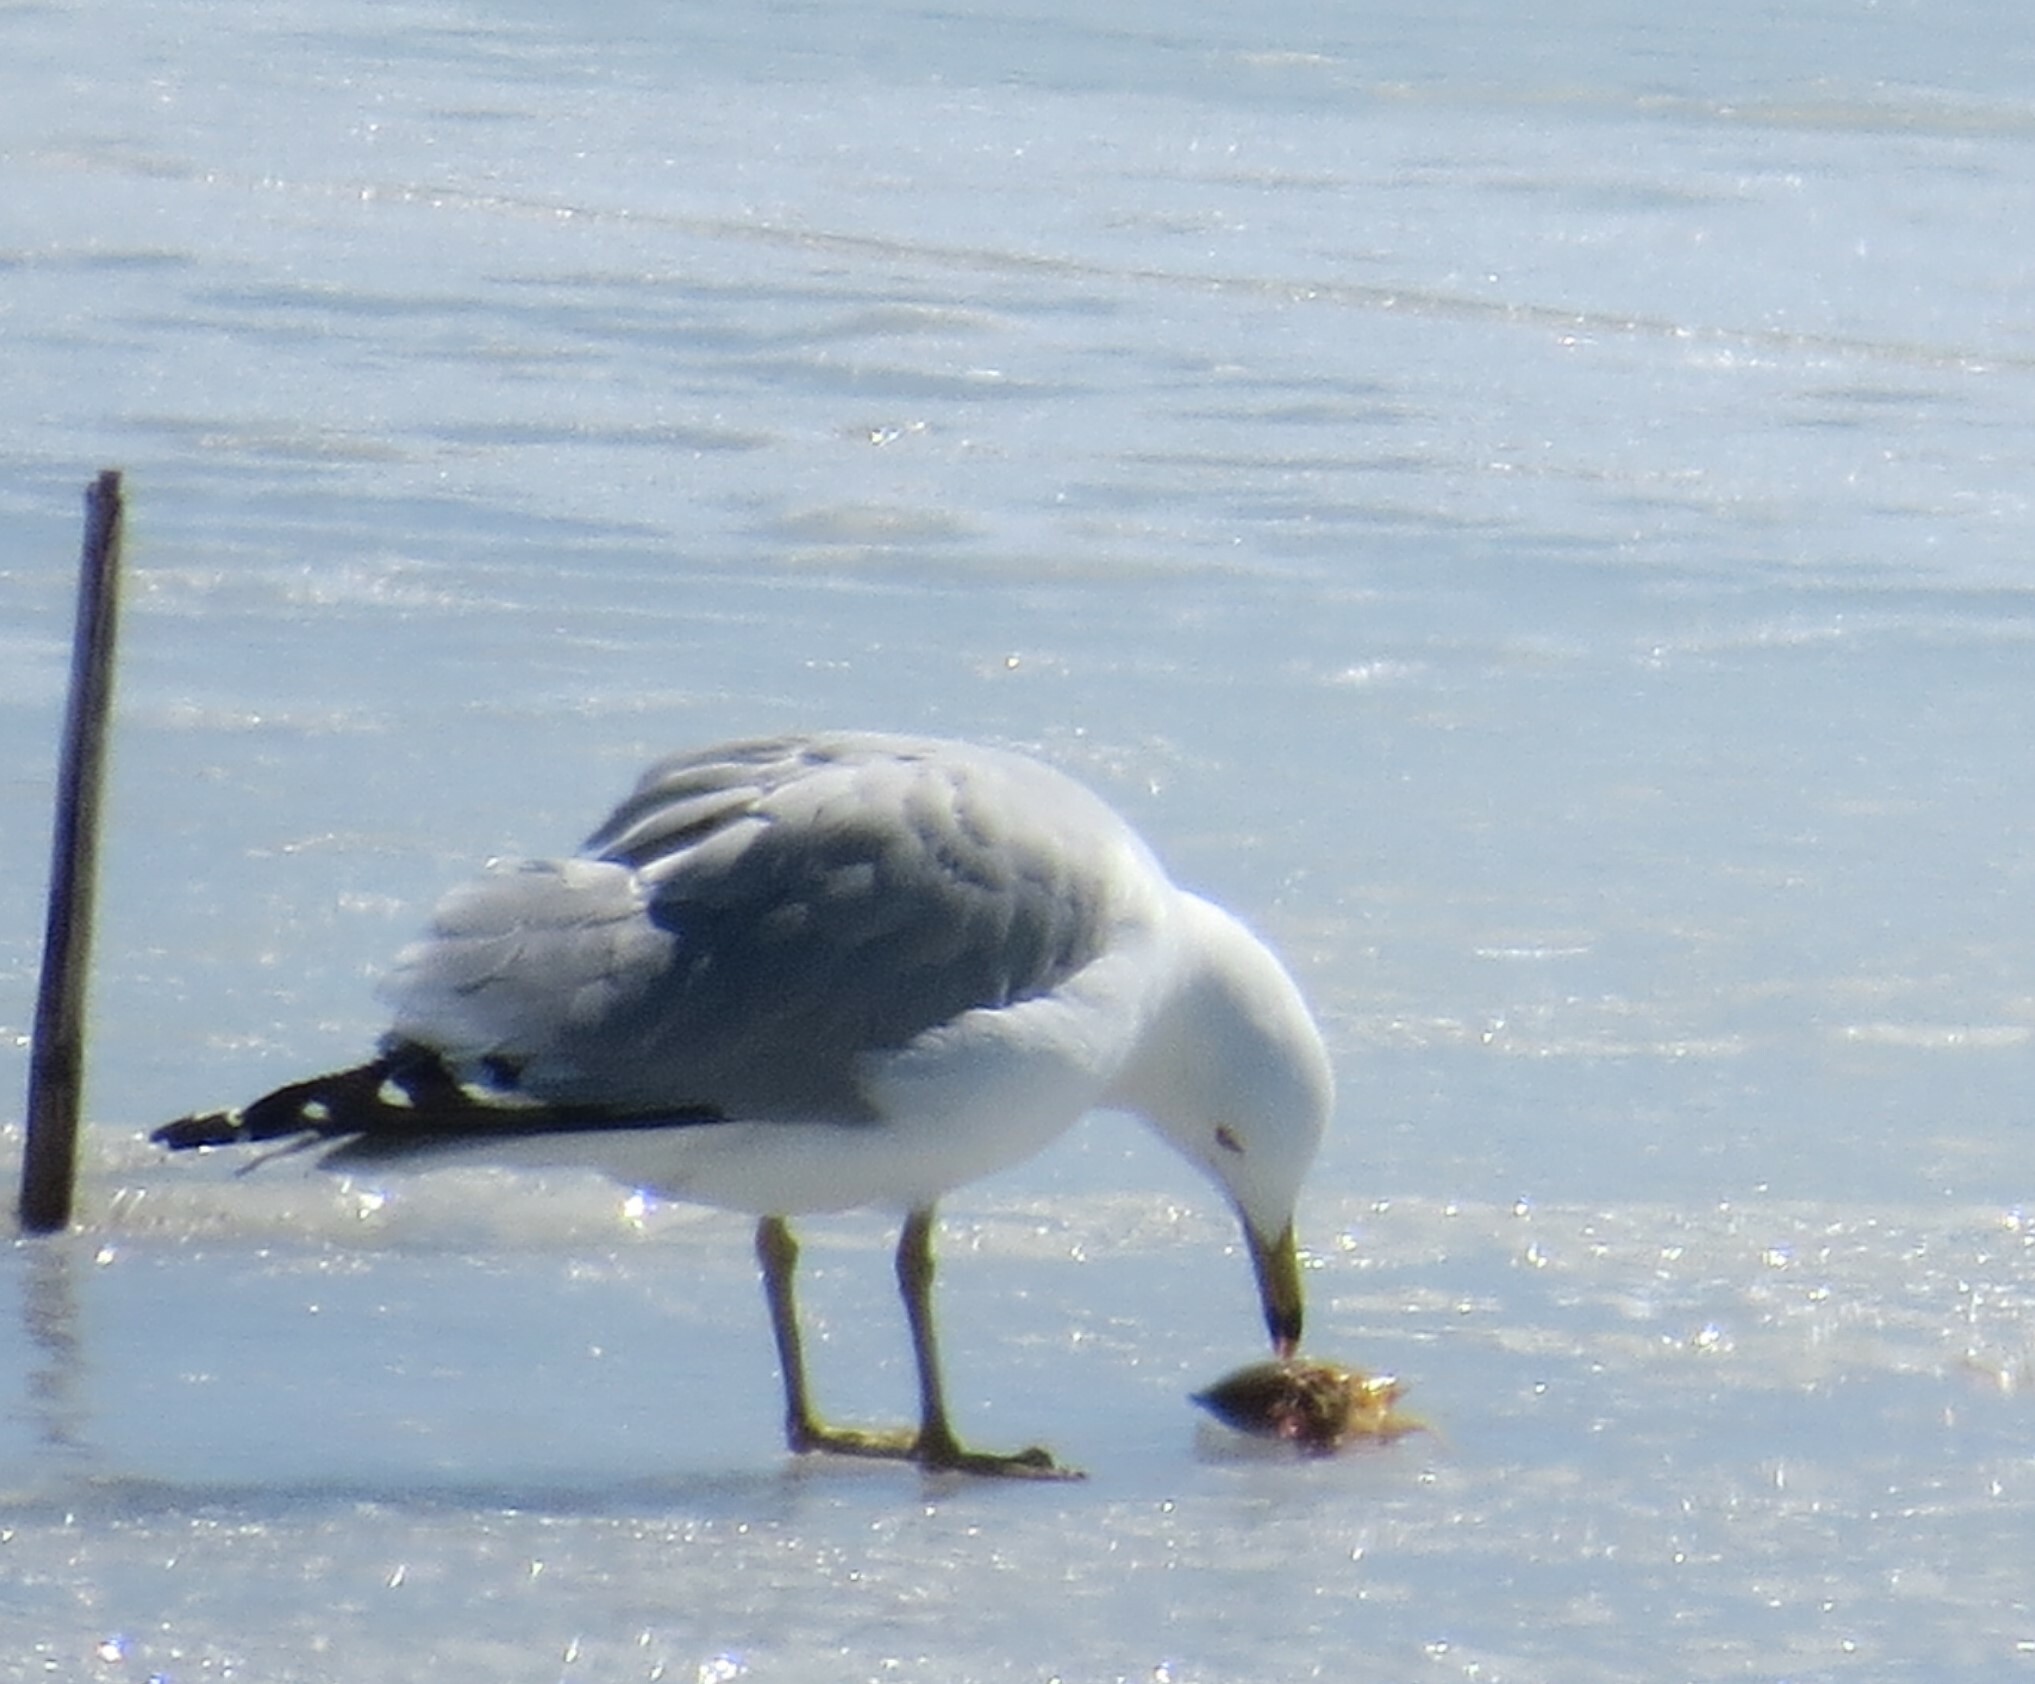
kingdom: Animalia
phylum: Chordata
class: Aves
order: Charadriiformes
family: Laridae
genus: Larus
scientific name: Larus delawarensis
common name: Ring-billed gull
